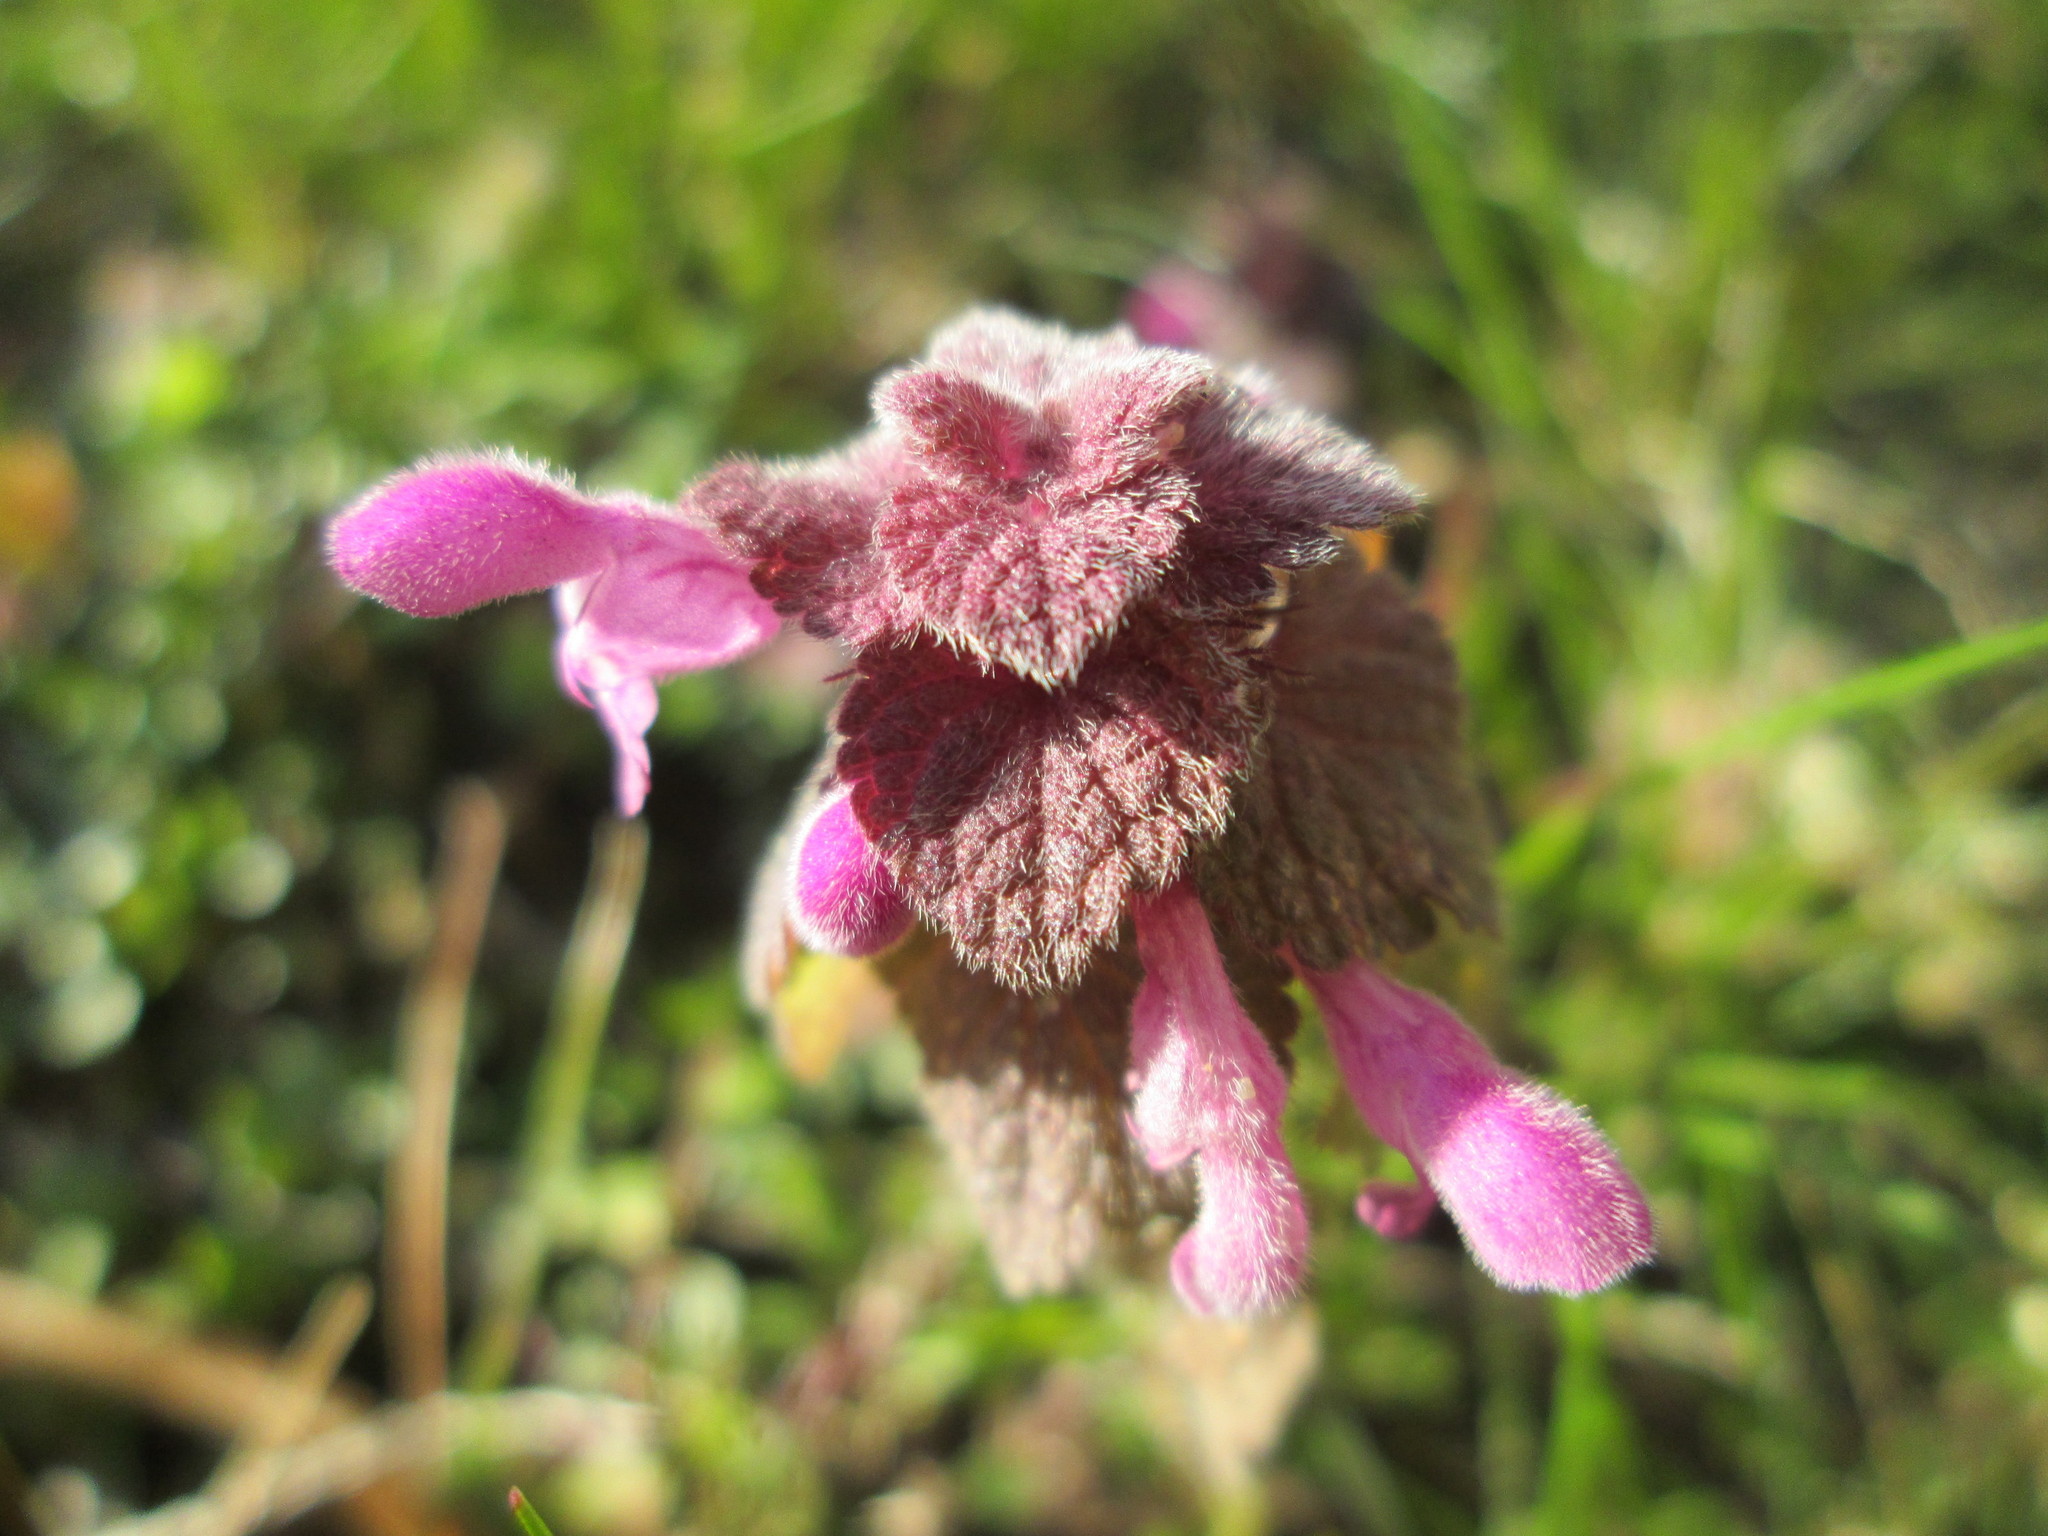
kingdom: Plantae
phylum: Tracheophyta
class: Magnoliopsida
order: Lamiales
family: Lamiaceae
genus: Lamium
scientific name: Lamium purpureum
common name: Red dead-nettle
